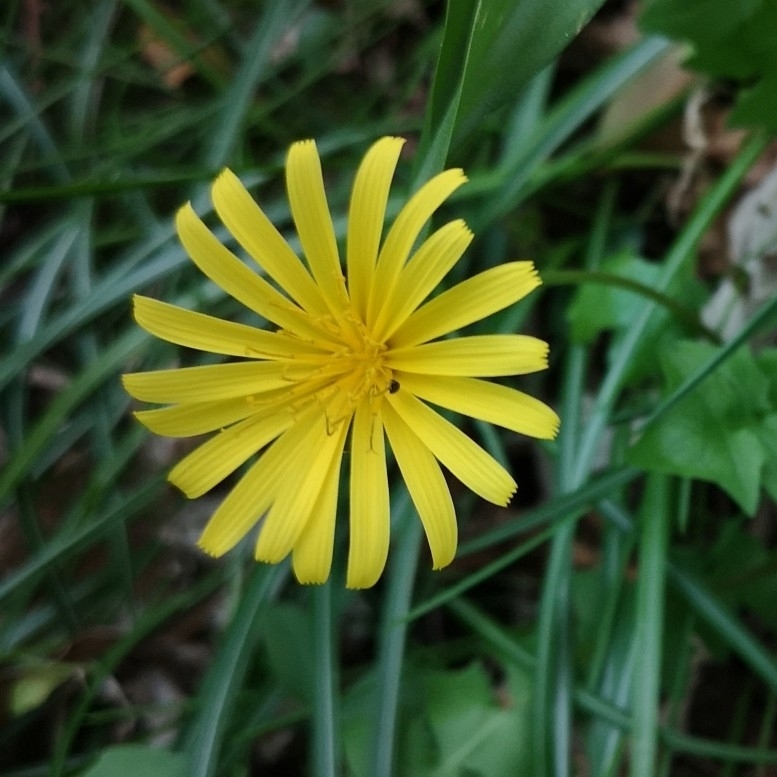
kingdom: Plantae
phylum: Tracheophyta
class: Magnoliopsida
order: Asterales
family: Asteraceae
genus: Aposeris
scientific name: Aposeris foetida
